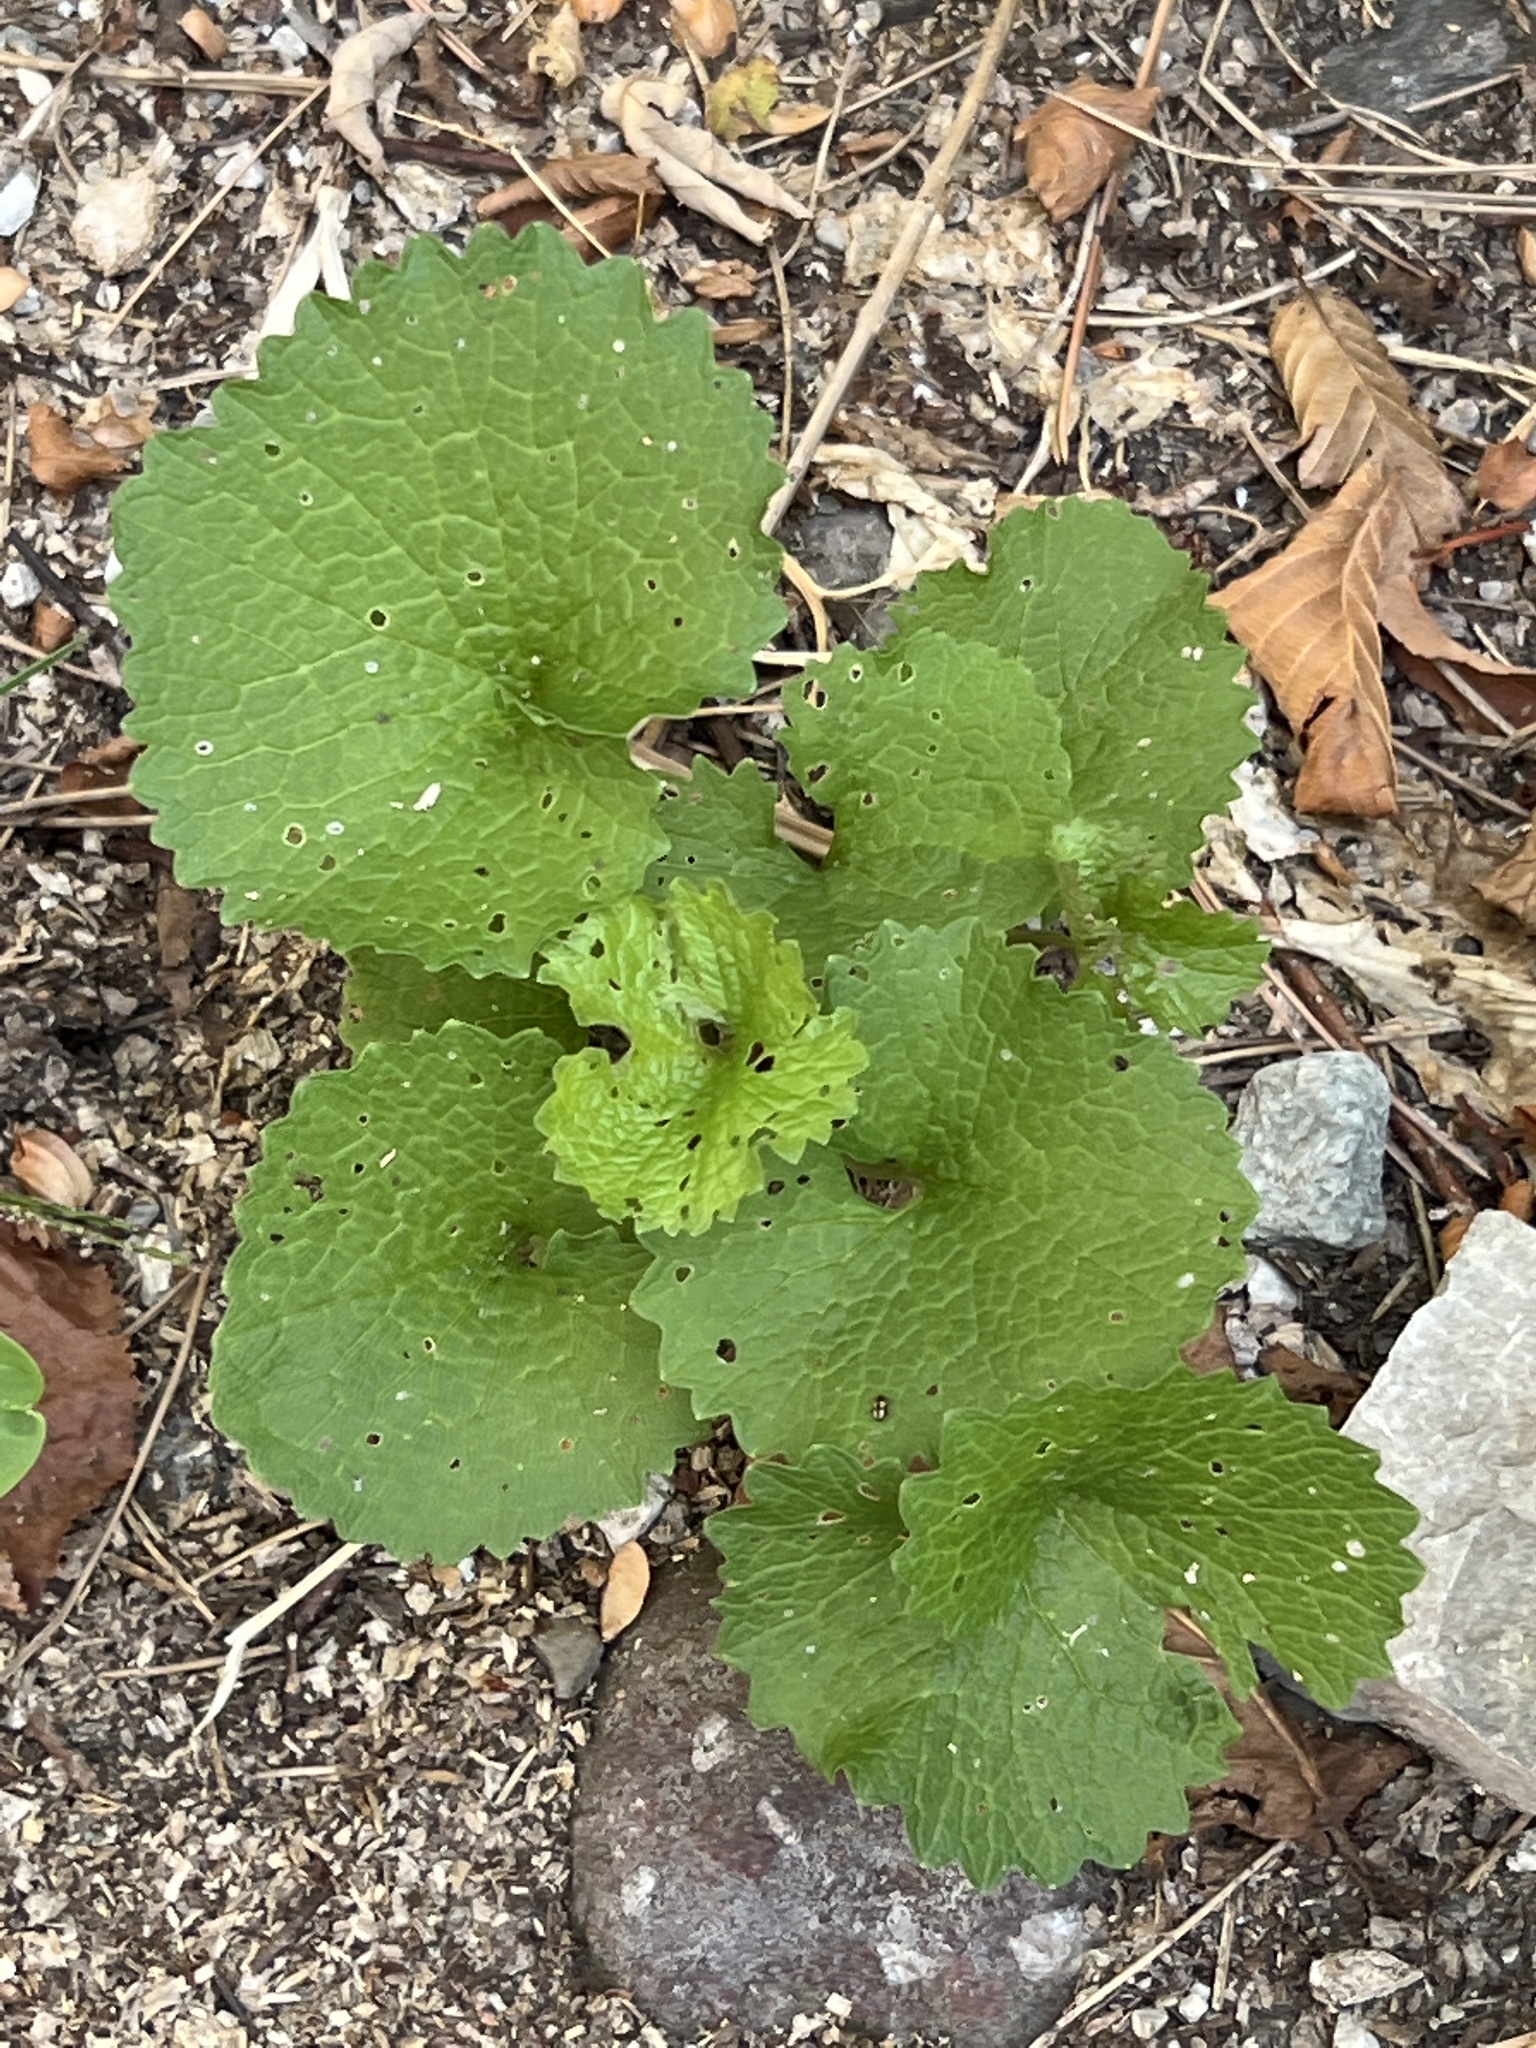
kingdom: Plantae
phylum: Tracheophyta
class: Magnoliopsida
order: Brassicales
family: Brassicaceae
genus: Alliaria
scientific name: Alliaria petiolata
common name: Garlic mustard
